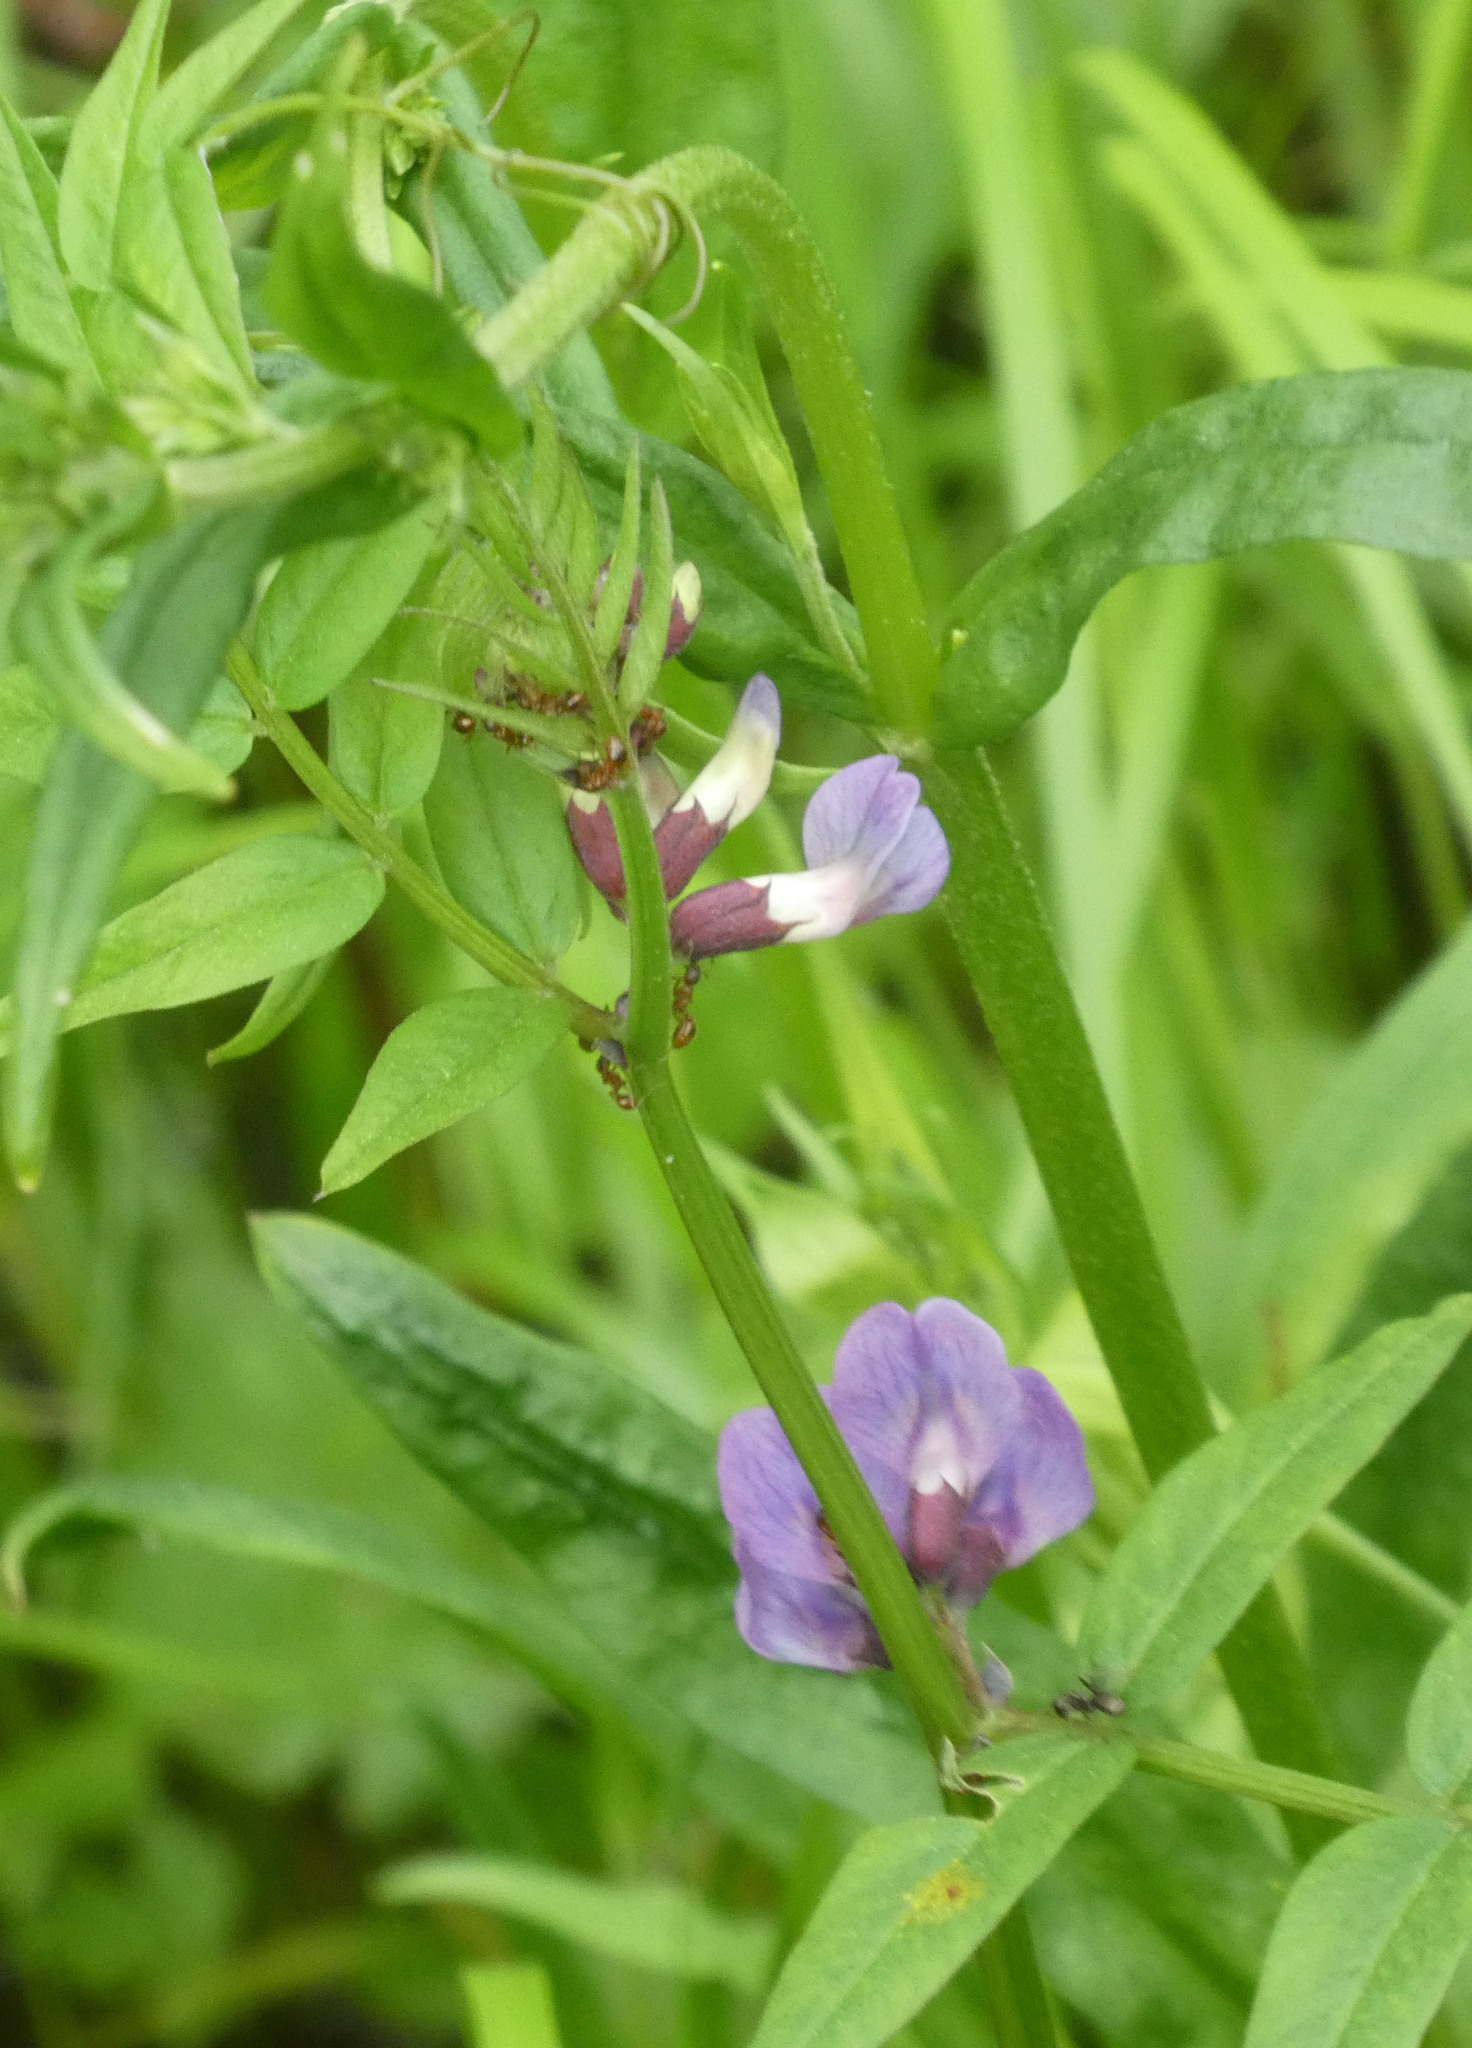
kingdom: Plantae
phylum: Tracheophyta
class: Magnoliopsida
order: Fabales
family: Fabaceae
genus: Vicia
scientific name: Vicia sepium
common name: Bush vetch
